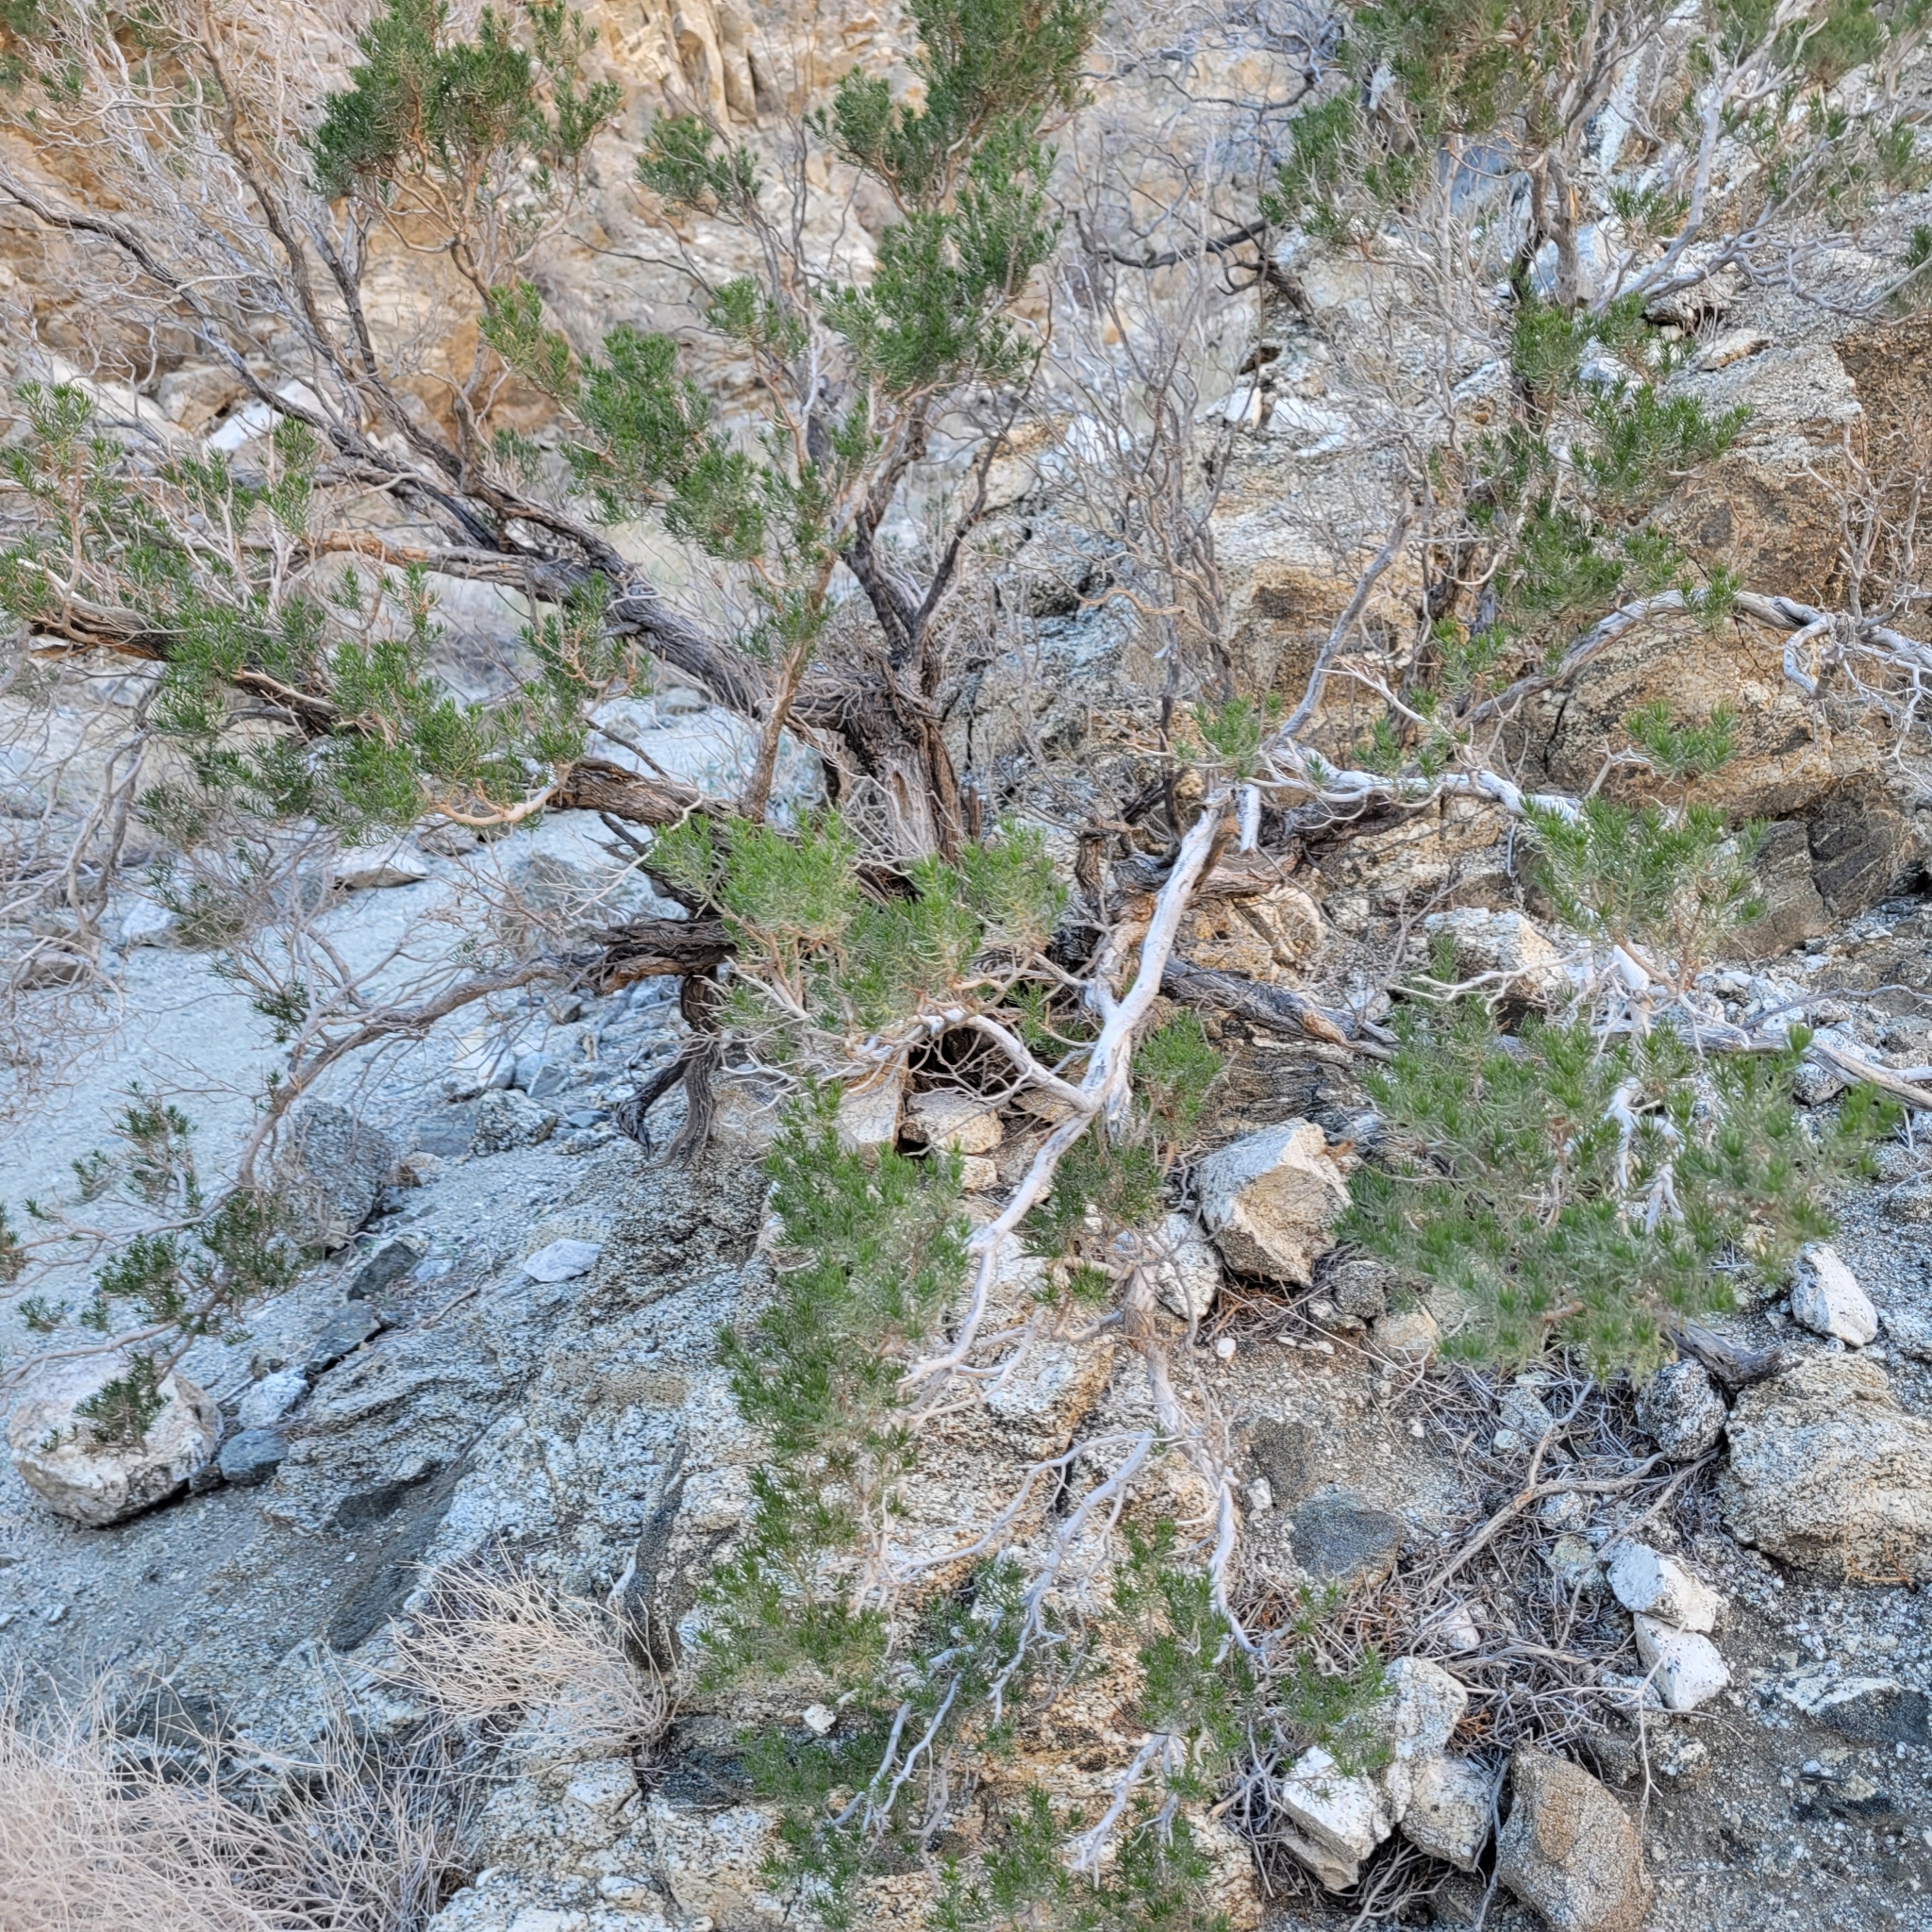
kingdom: Plantae
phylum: Tracheophyta
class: Magnoliopsida
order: Asterales
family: Asteraceae
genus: Peucephyllum
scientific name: Peucephyllum schottii
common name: Pygmy-cedar
